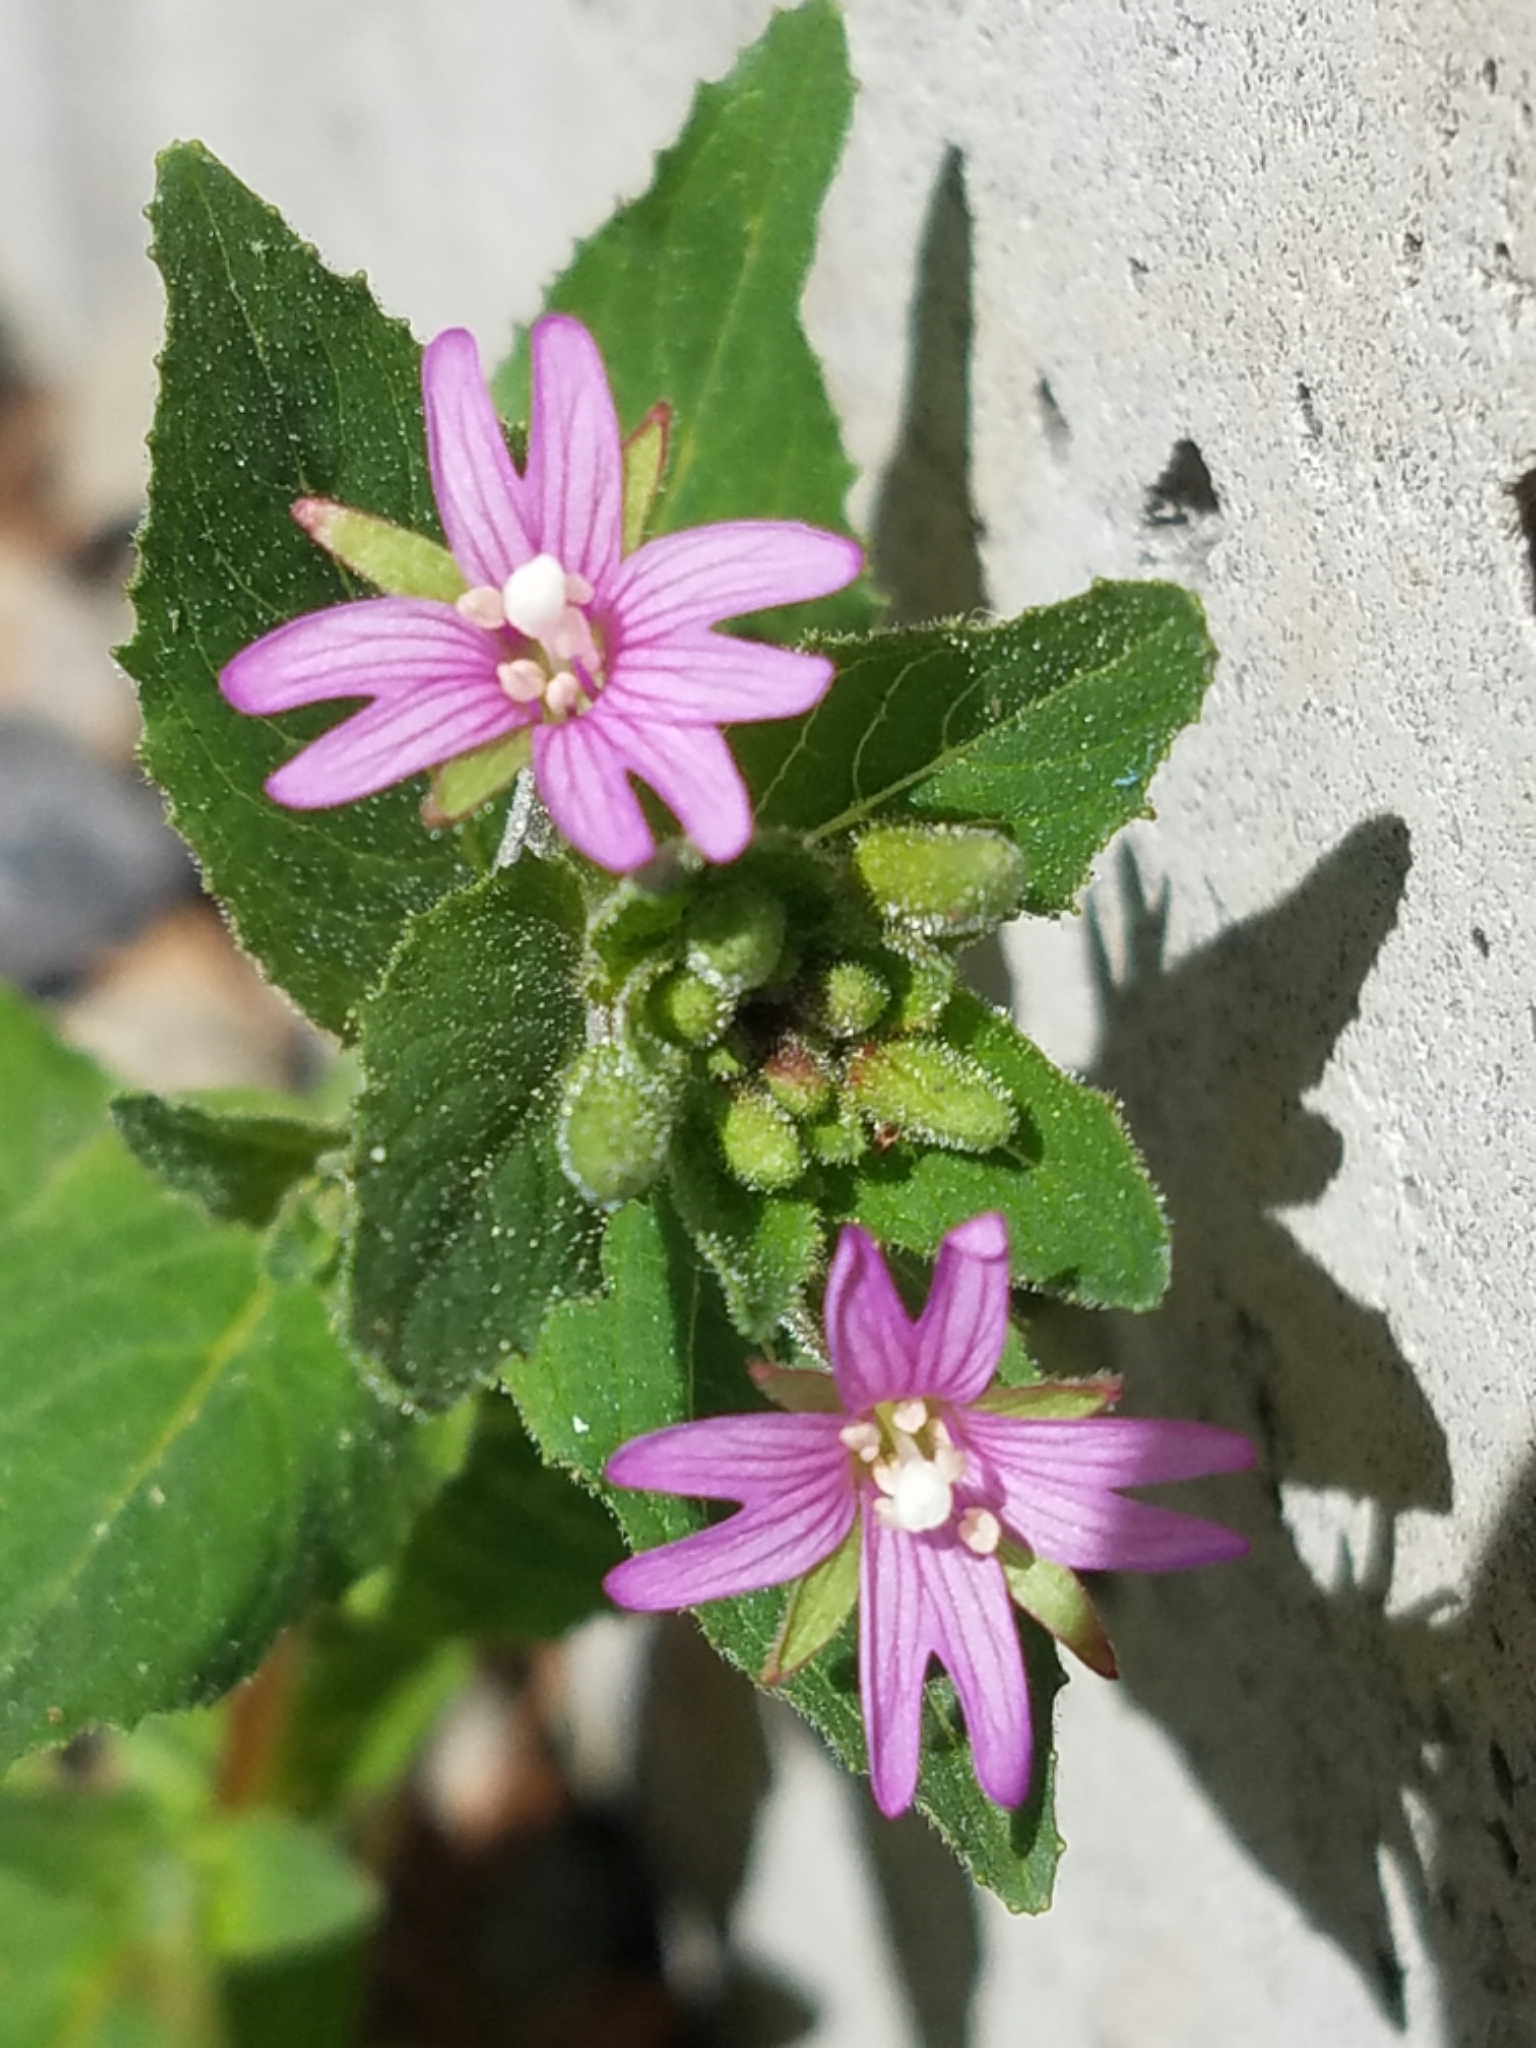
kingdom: Plantae
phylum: Tracheophyta
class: Magnoliopsida
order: Myrtales
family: Onagraceae
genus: Epilobium
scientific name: Epilobium ciliatum
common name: American willowherb
